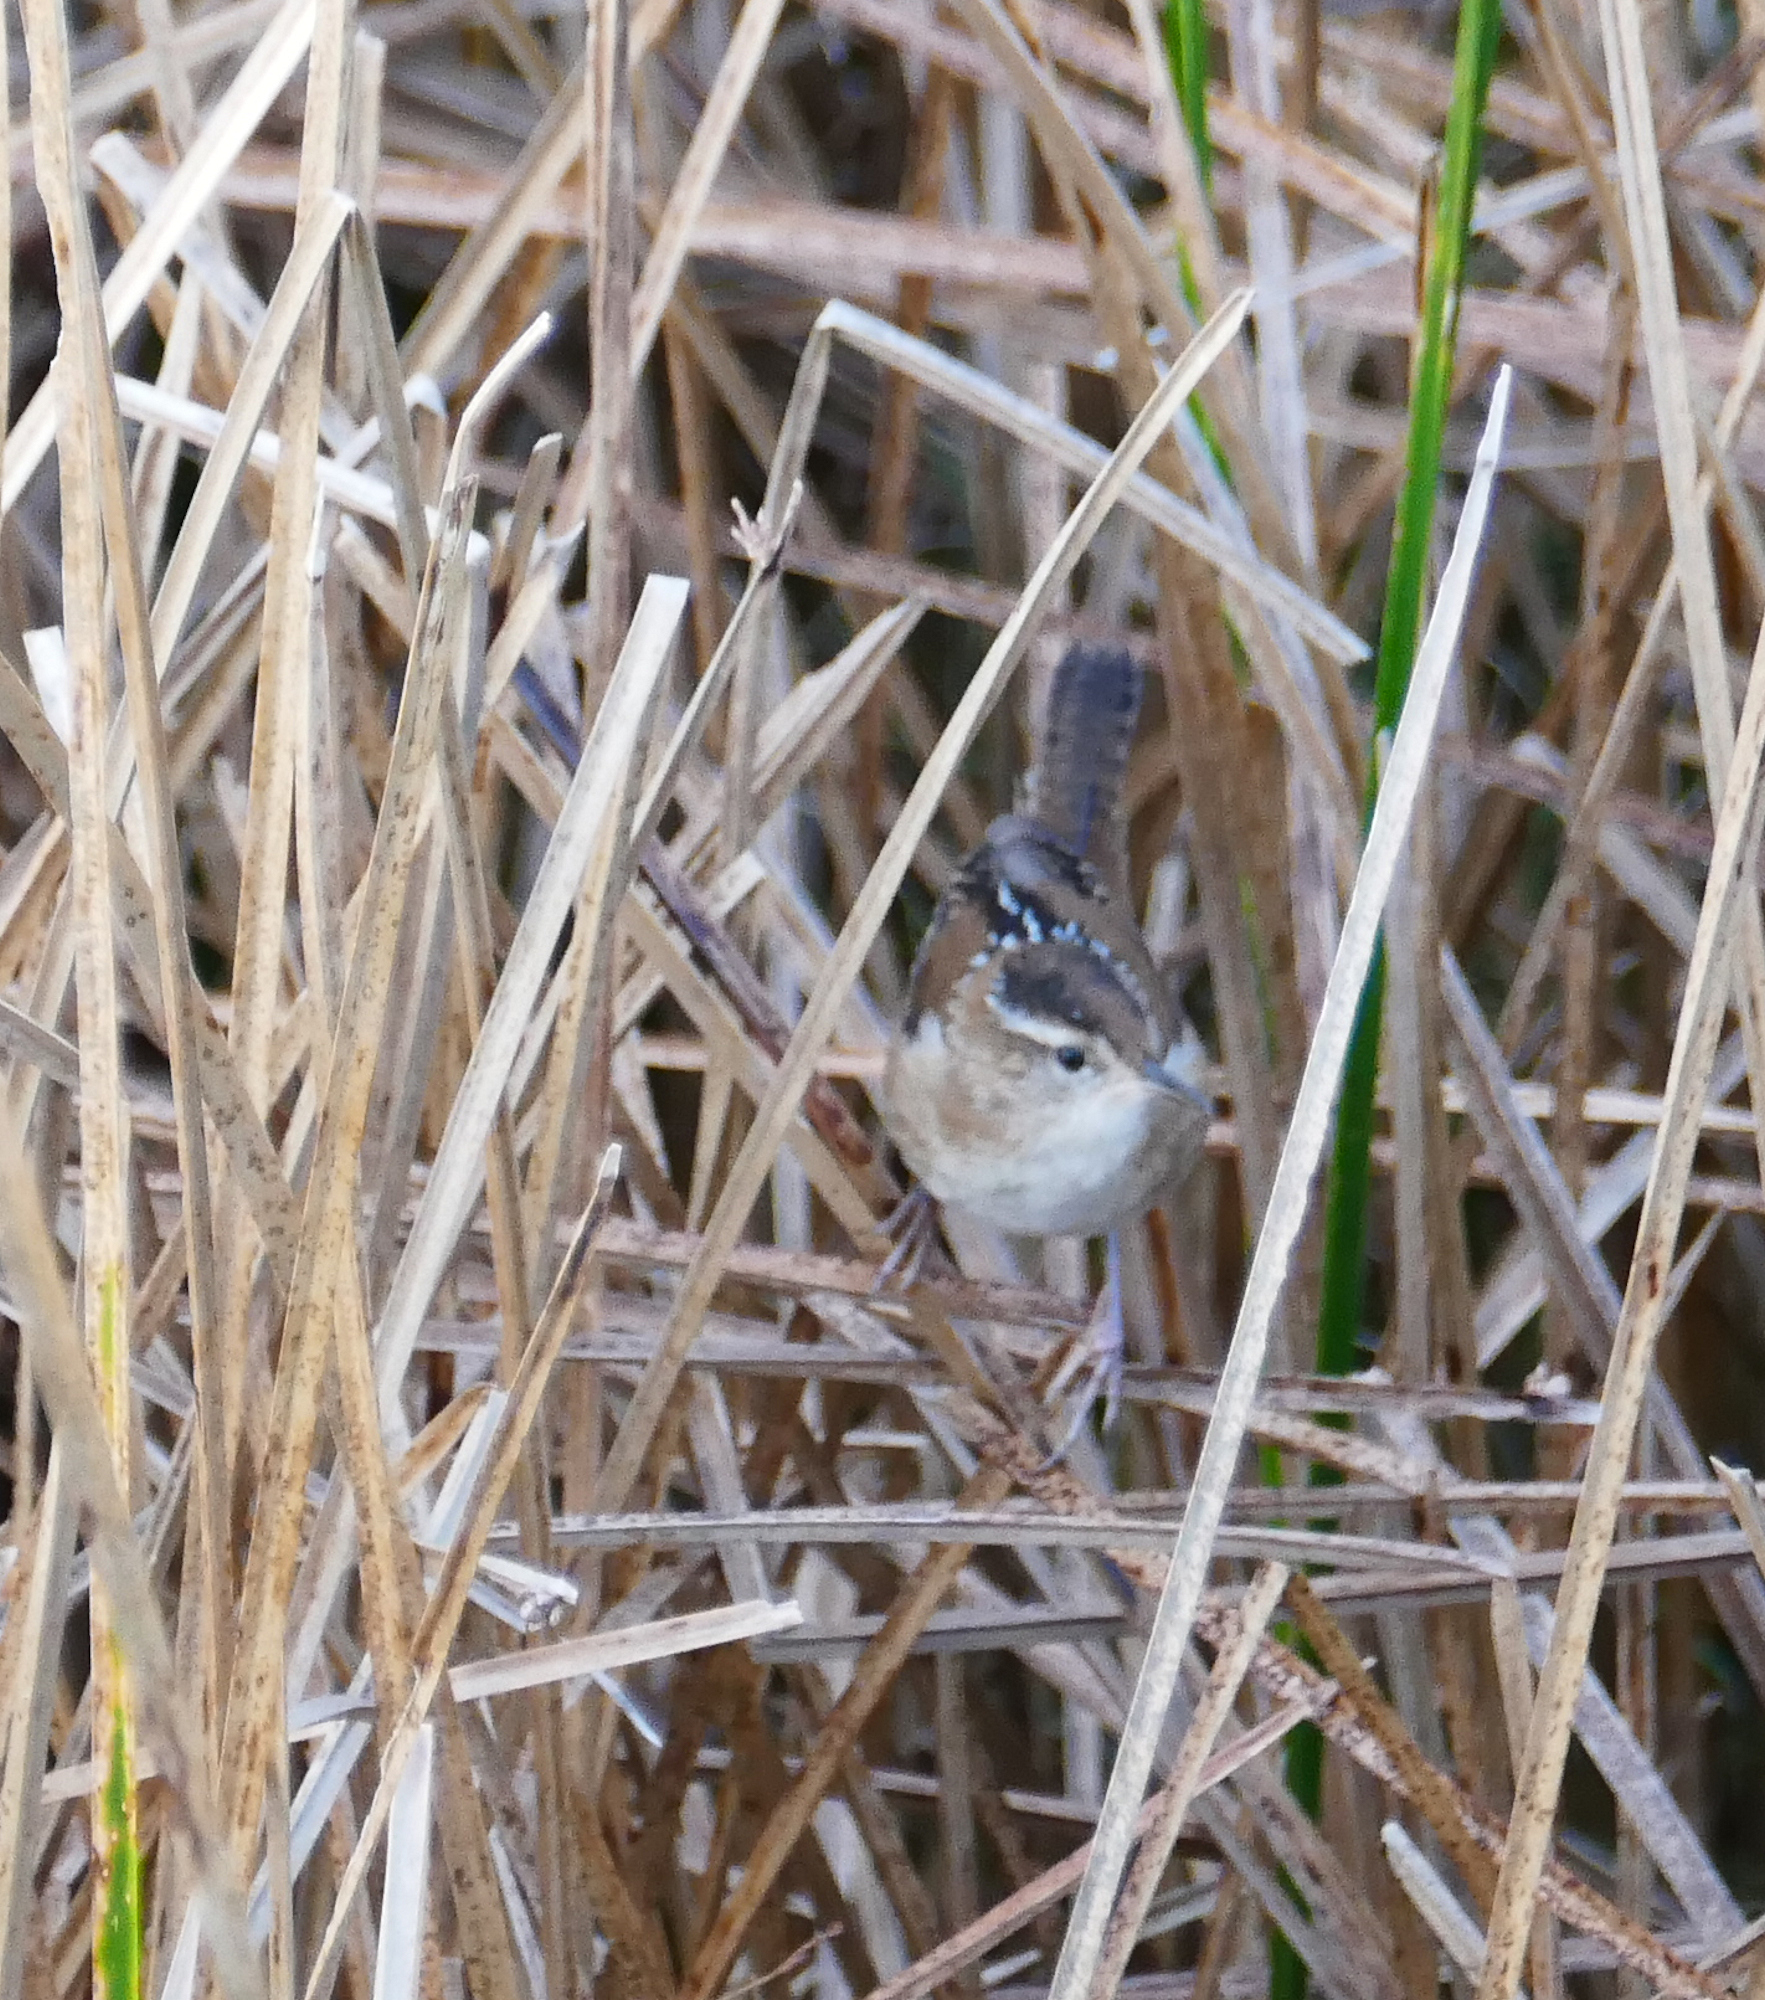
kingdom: Animalia
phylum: Chordata
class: Aves
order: Passeriformes
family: Troglodytidae
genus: Cistothorus
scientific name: Cistothorus palustris
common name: Marsh wren
